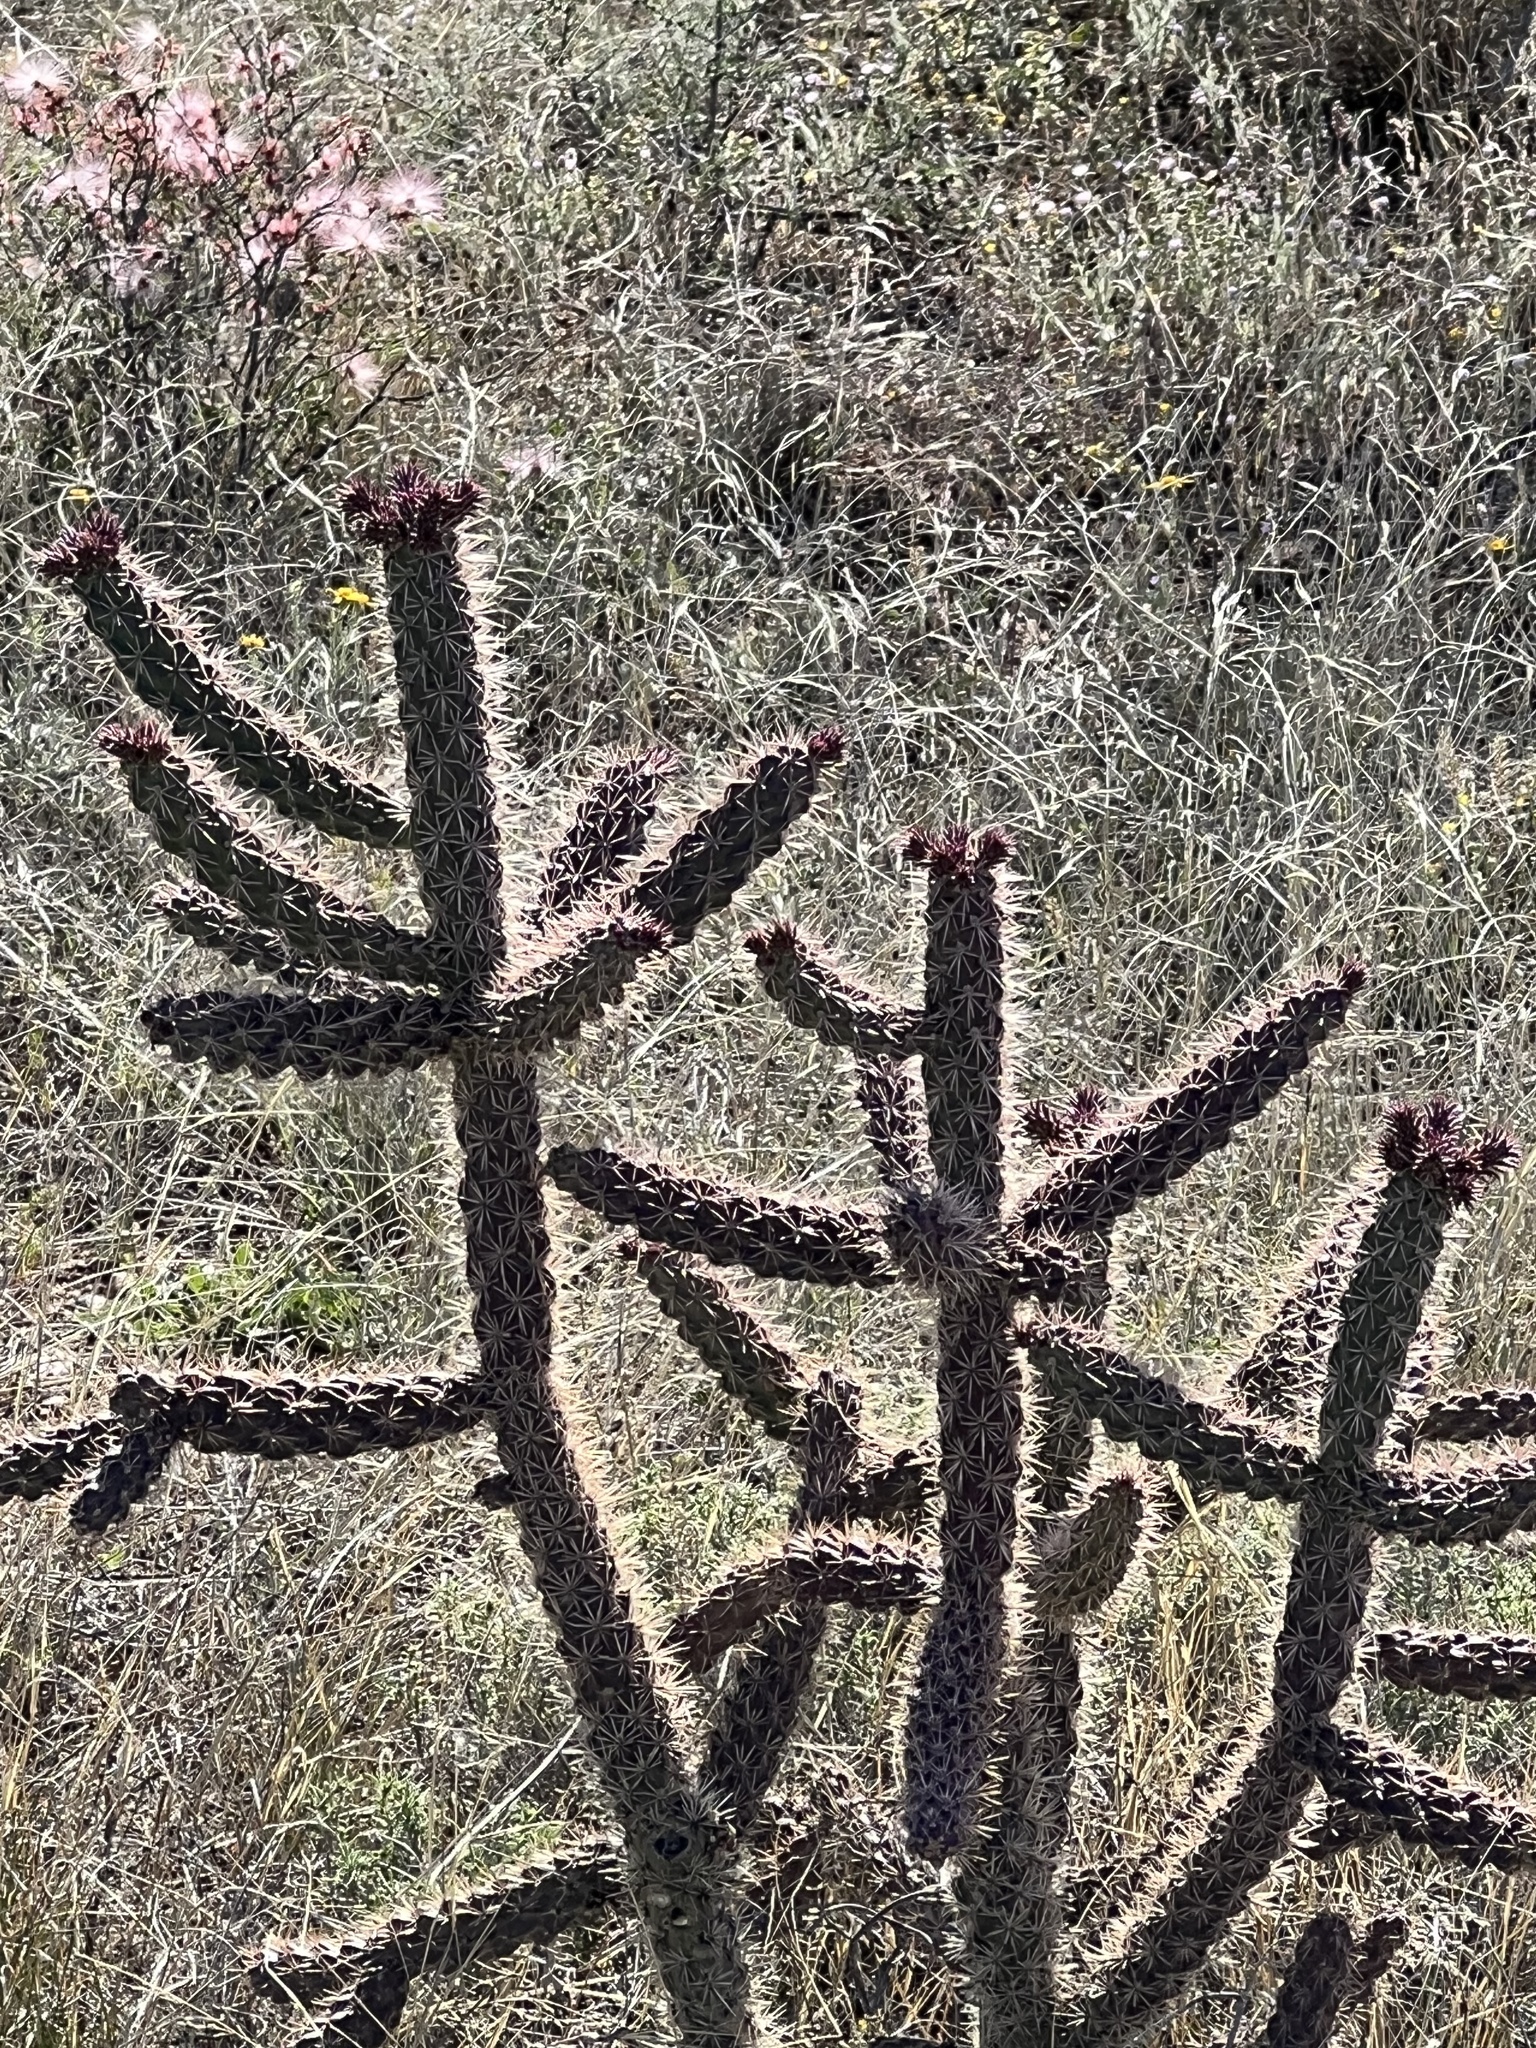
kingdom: Plantae
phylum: Tracheophyta
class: Magnoliopsida
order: Caryophyllales
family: Cactaceae
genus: Cylindropuntia
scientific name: Cylindropuntia imbricata
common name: Candelabrum cactus
